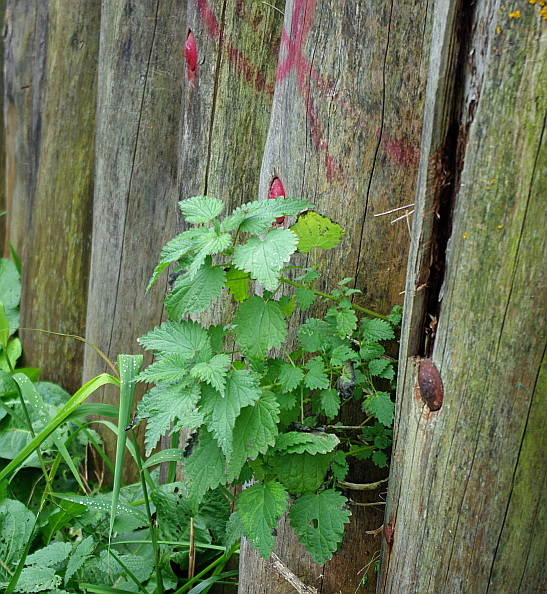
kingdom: Plantae
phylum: Tracheophyta
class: Magnoliopsida
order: Rosales
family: Urticaceae
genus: Urtica
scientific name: Urtica dioica
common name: Common nettle
